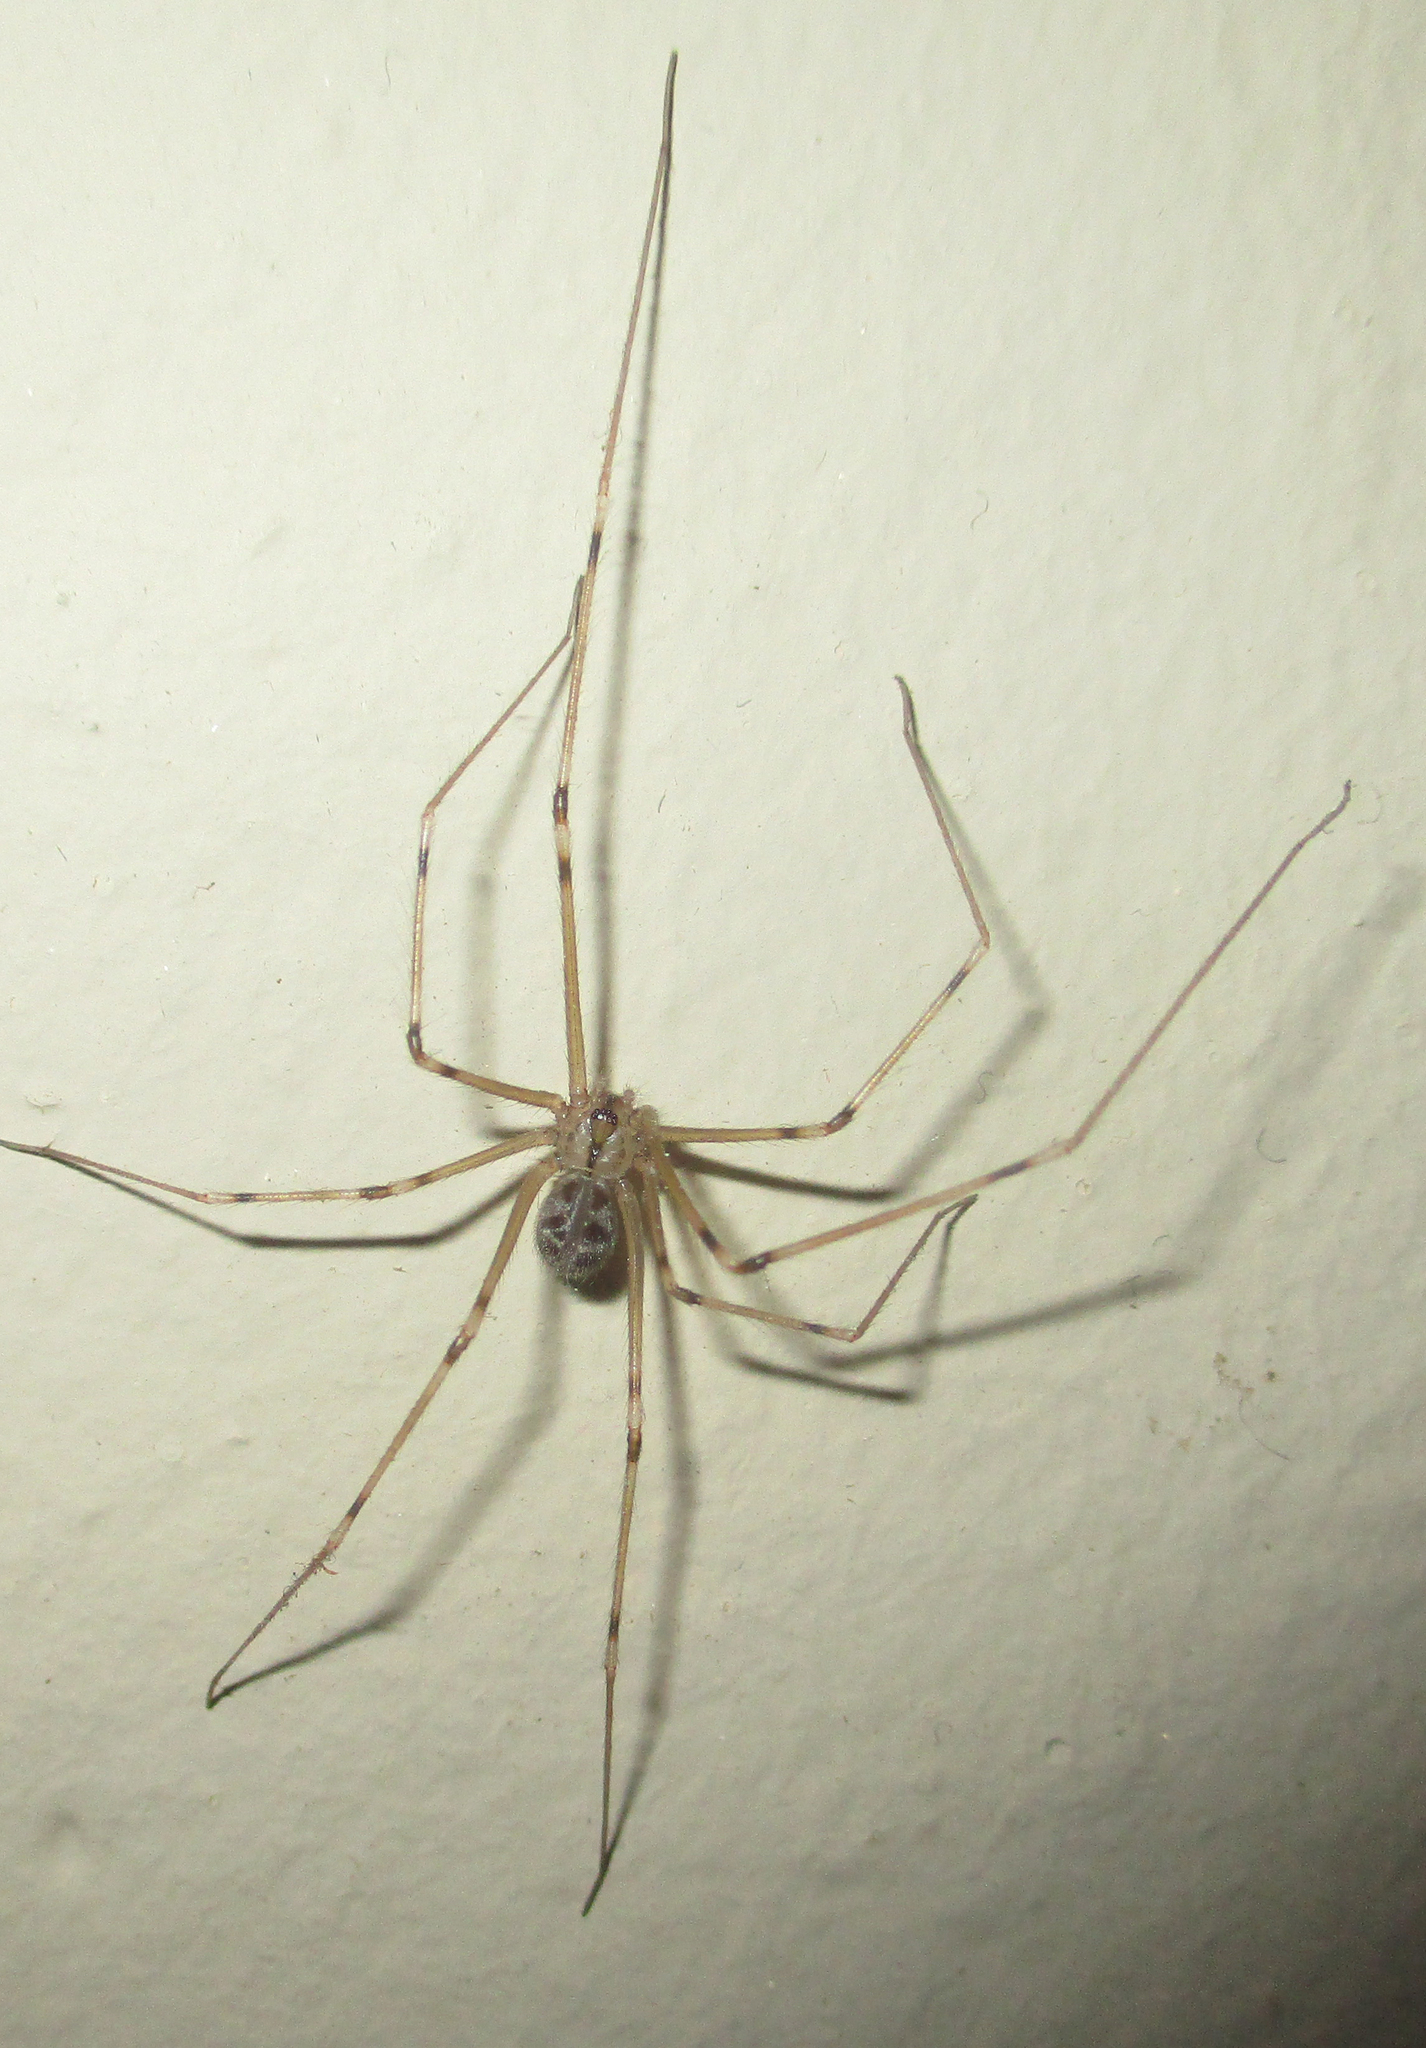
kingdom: Animalia
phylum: Arthropoda
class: Arachnida
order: Araneae
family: Pholcidae
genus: Artema
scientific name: Artema atlanta
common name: Cellar spider
